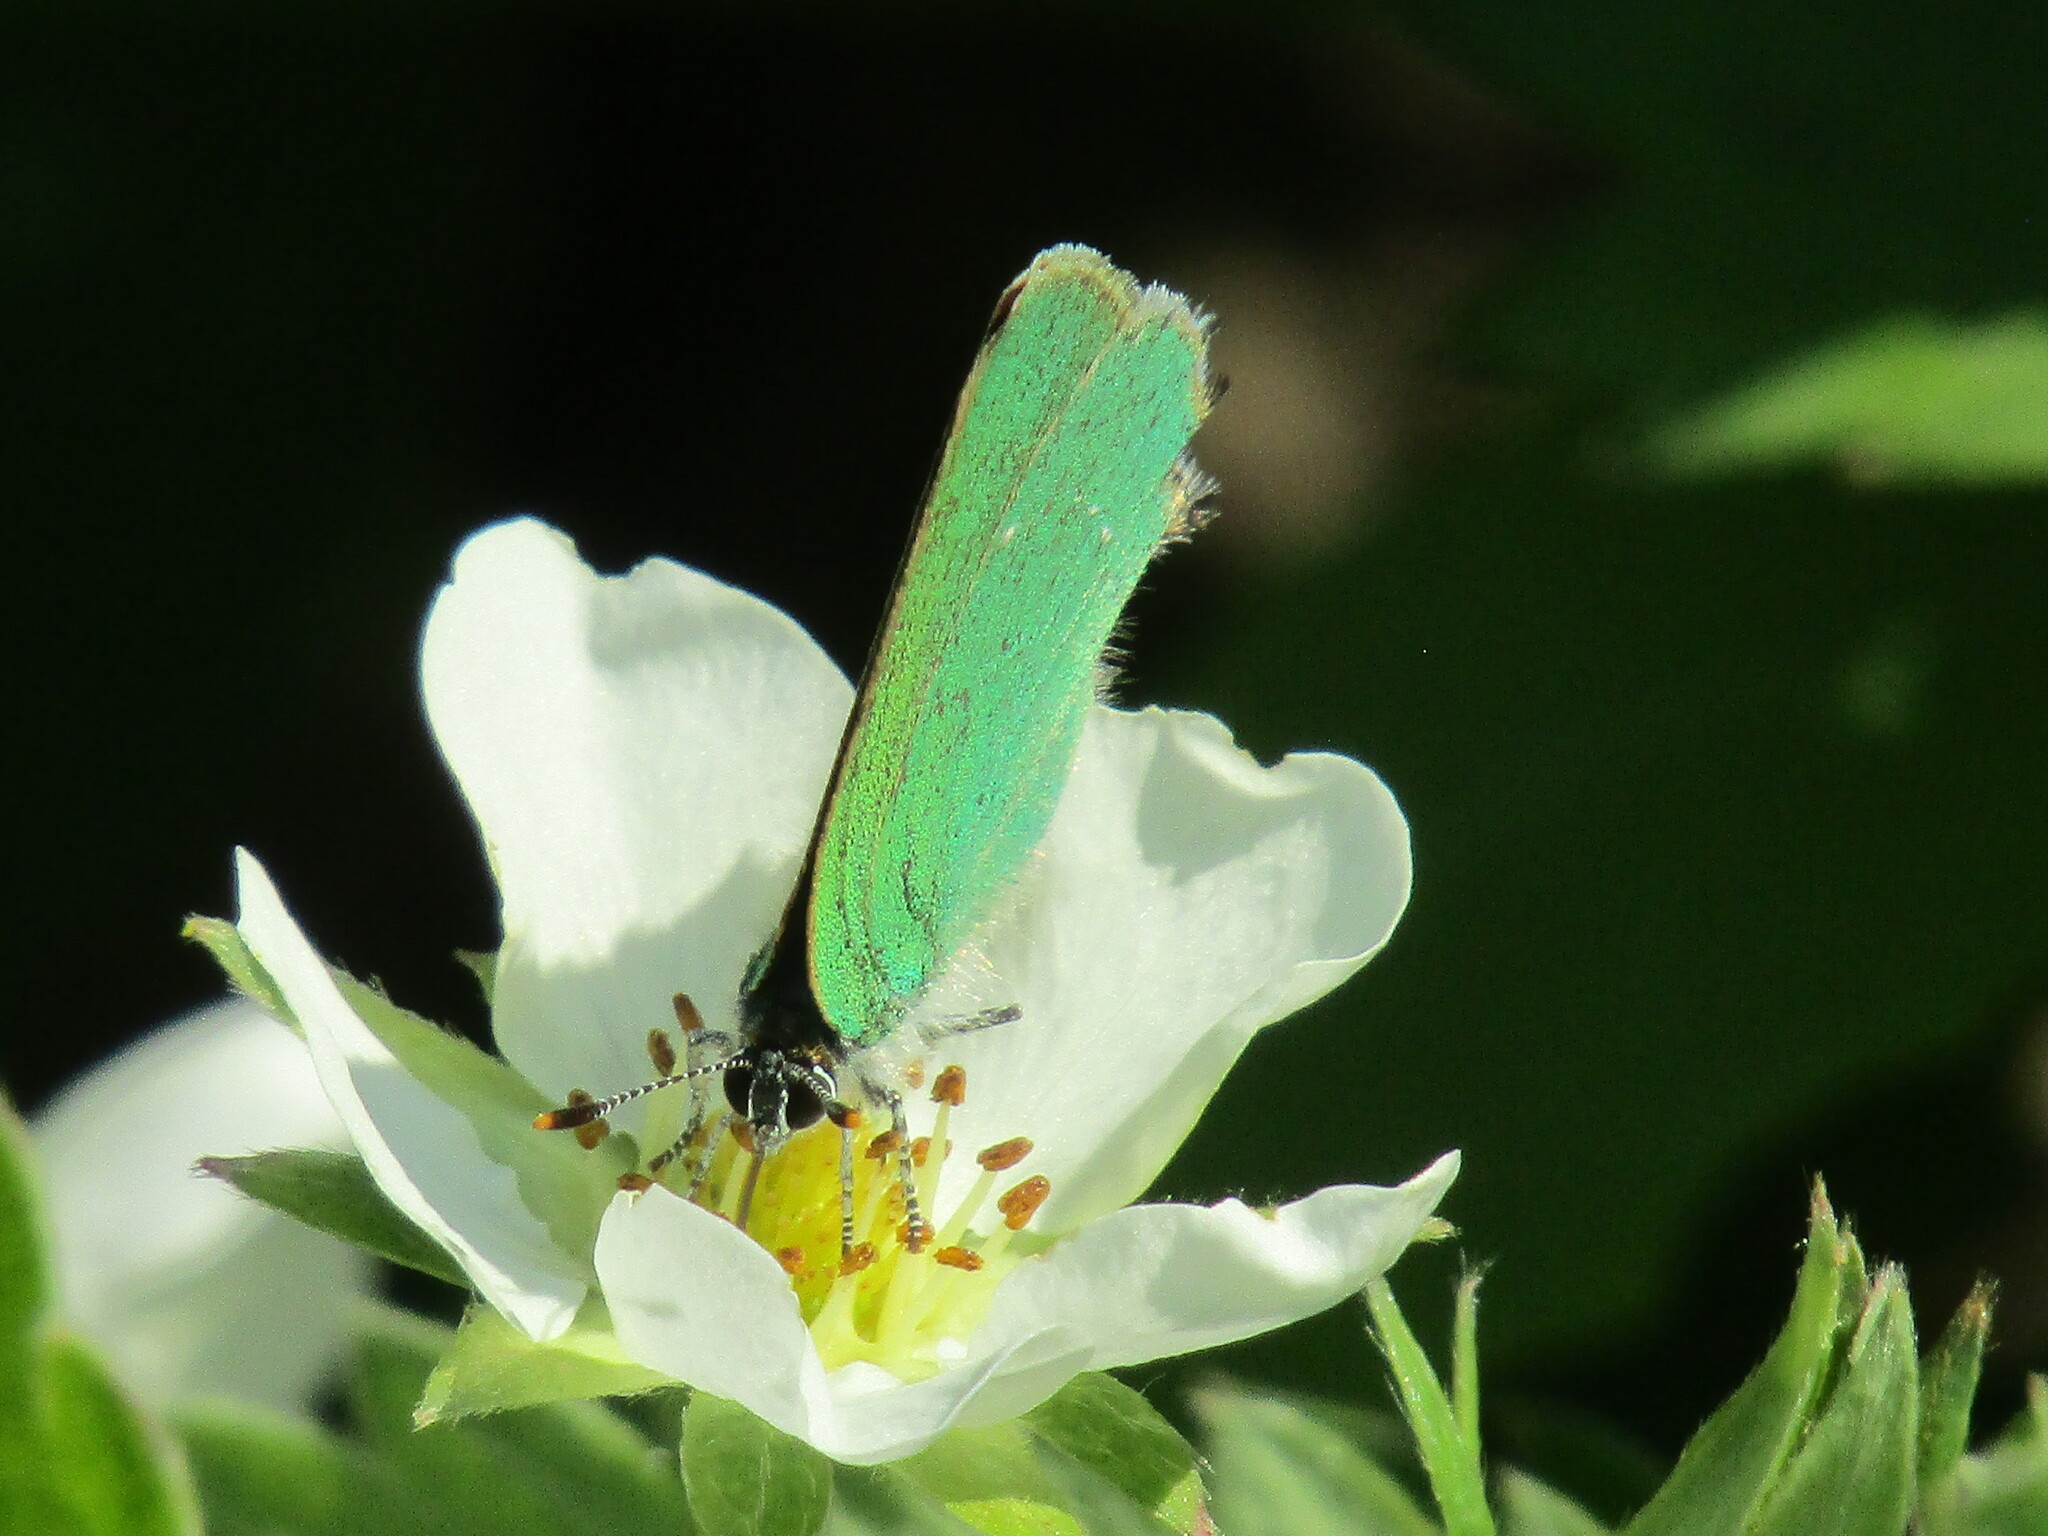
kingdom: Animalia
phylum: Arthropoda
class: Insecta
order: Lepidoptera
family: Lycaenidae
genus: Callophrys
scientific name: Callophrys rubi
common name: Green hairstreak
